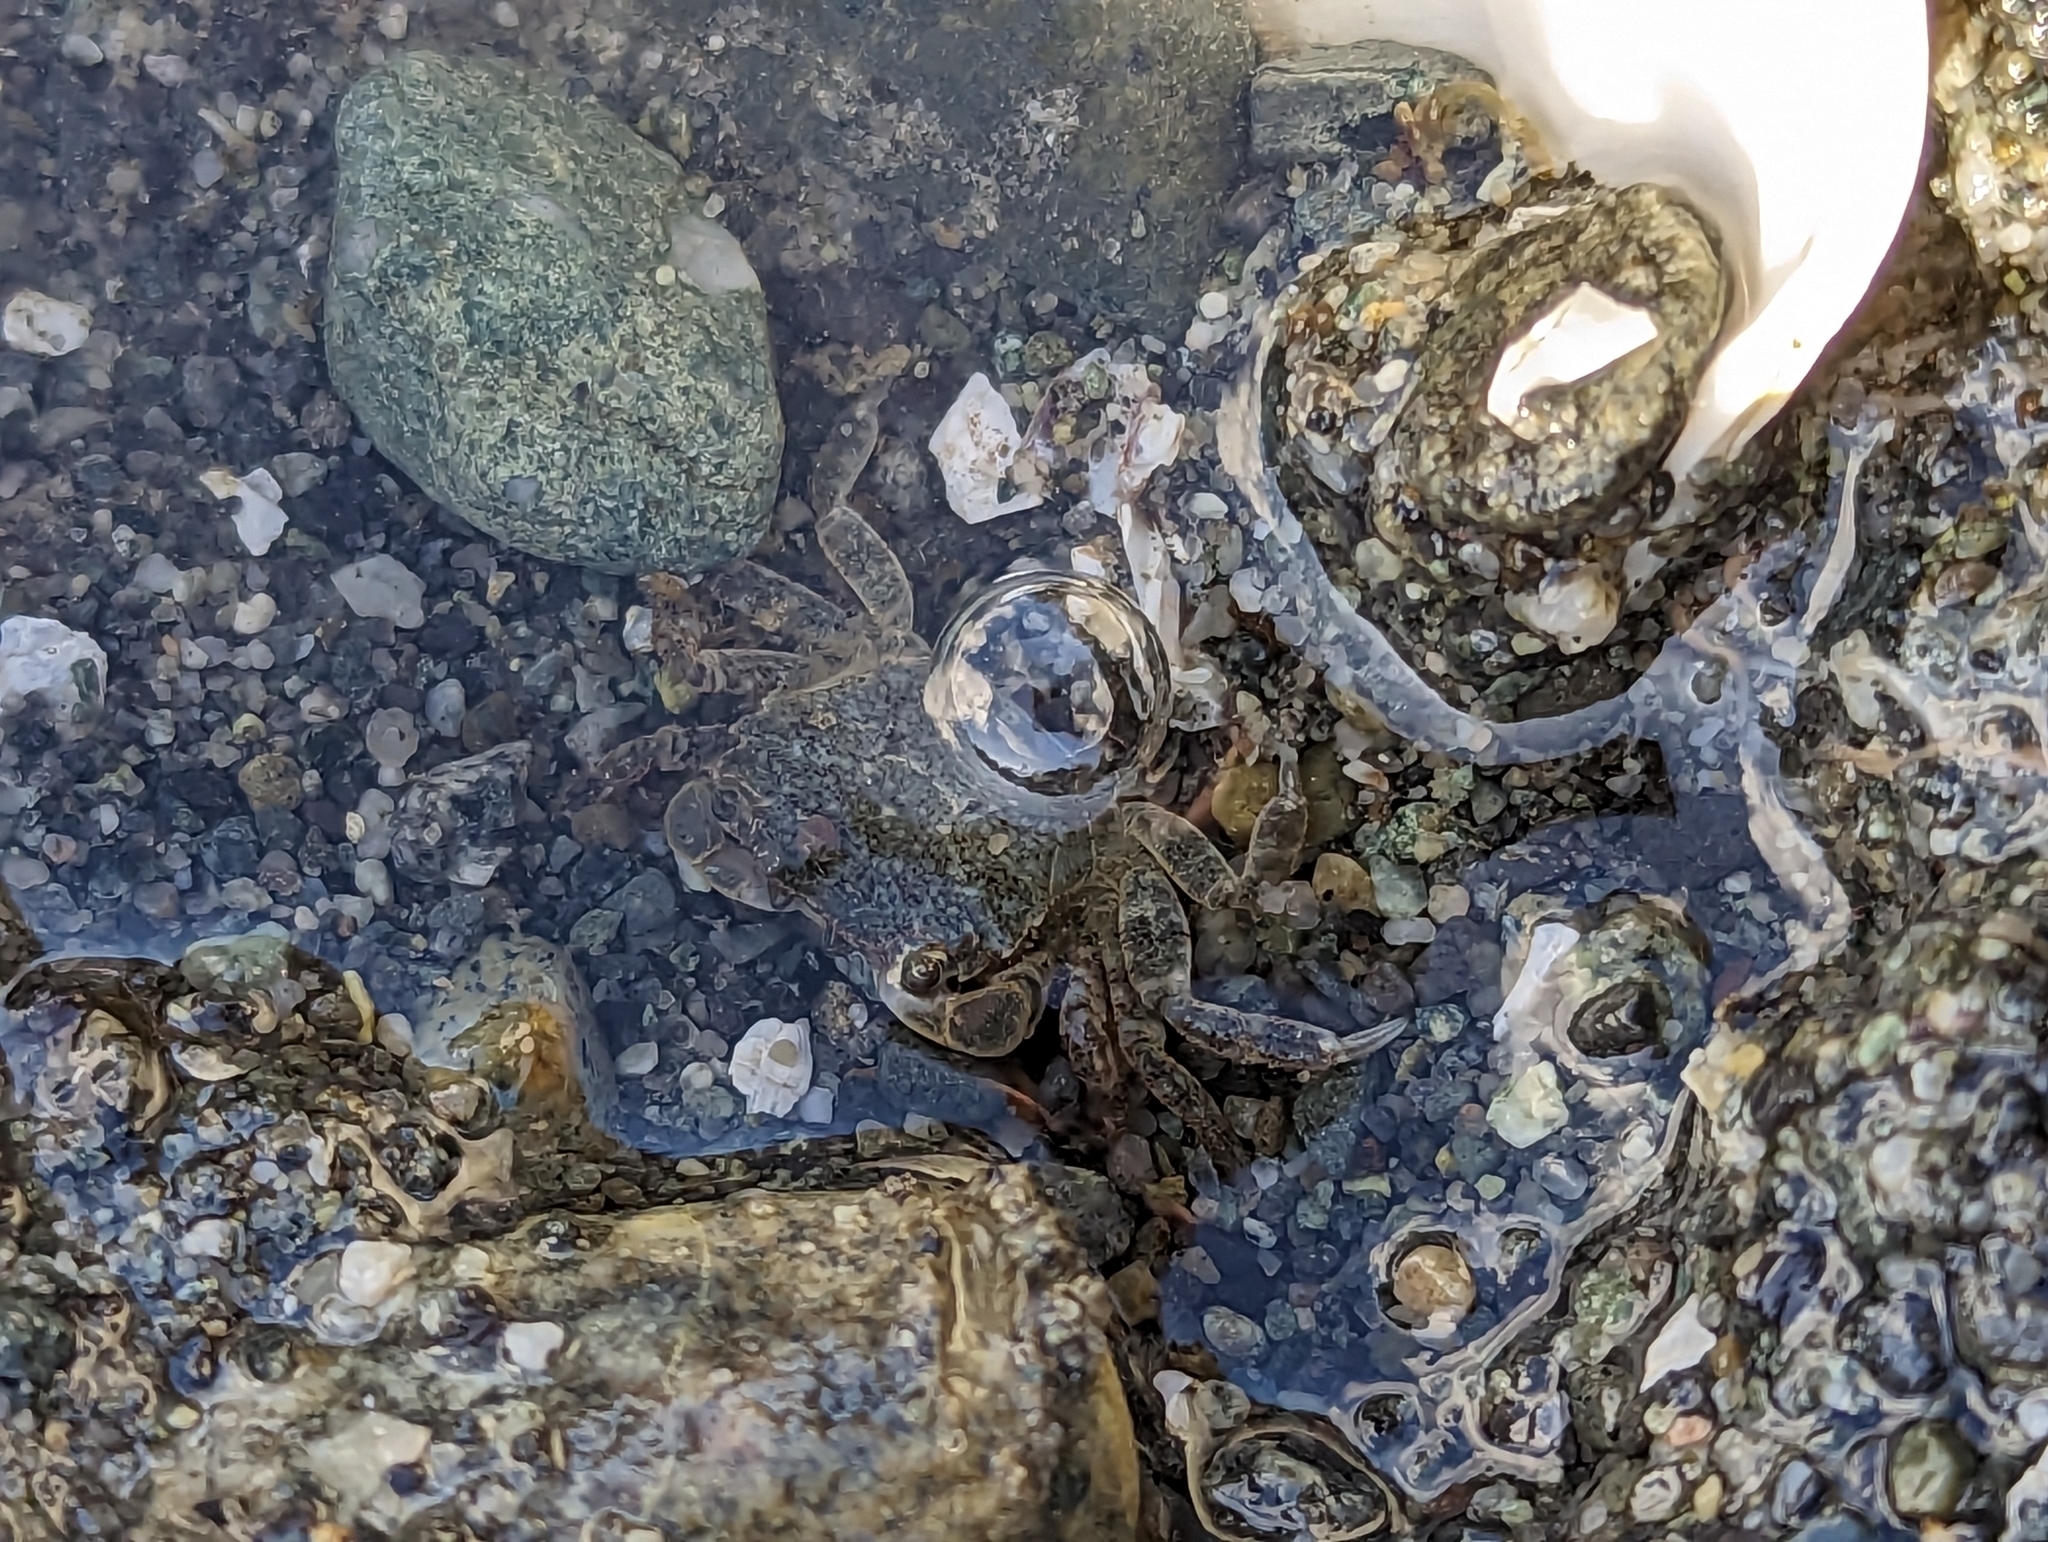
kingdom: Animalia
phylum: Arthropoda
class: Malacostraca
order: Decapoda
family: Varunidae
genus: Hemigrapsus
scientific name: Hemigrapsus oregonensis
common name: Yellow shore crab
